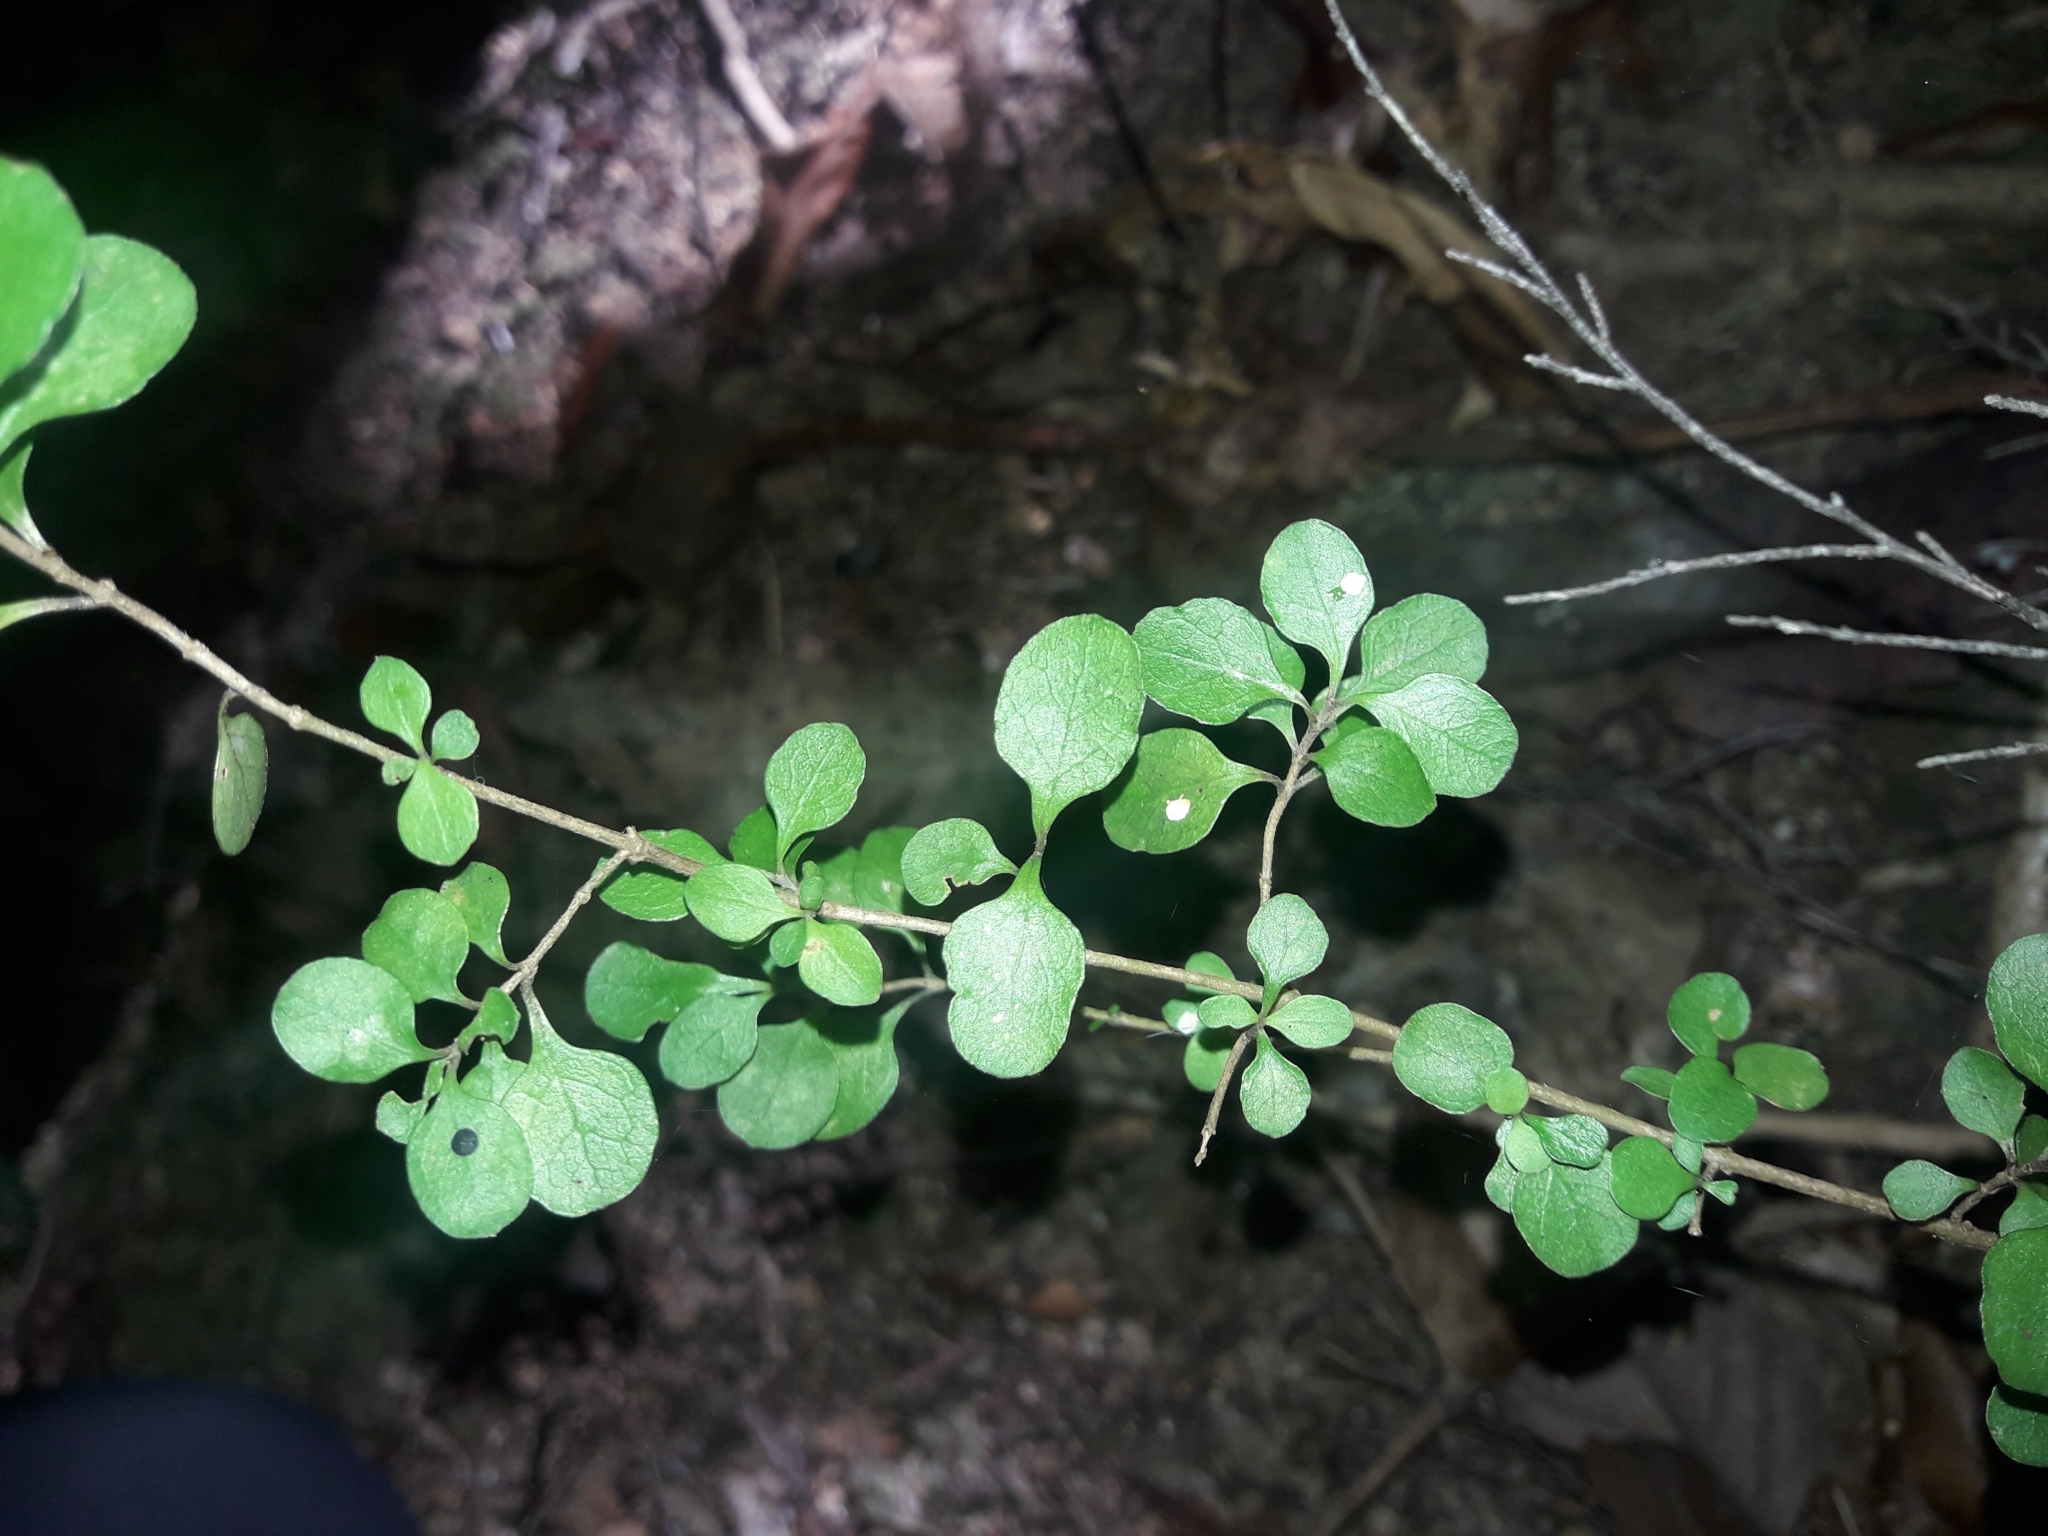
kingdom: Plantae
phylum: Tracheophyta
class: Magnoliopsida
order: Gentianales
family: Rubiaceae
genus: Coprosma
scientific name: Coprosma rhamnoides
